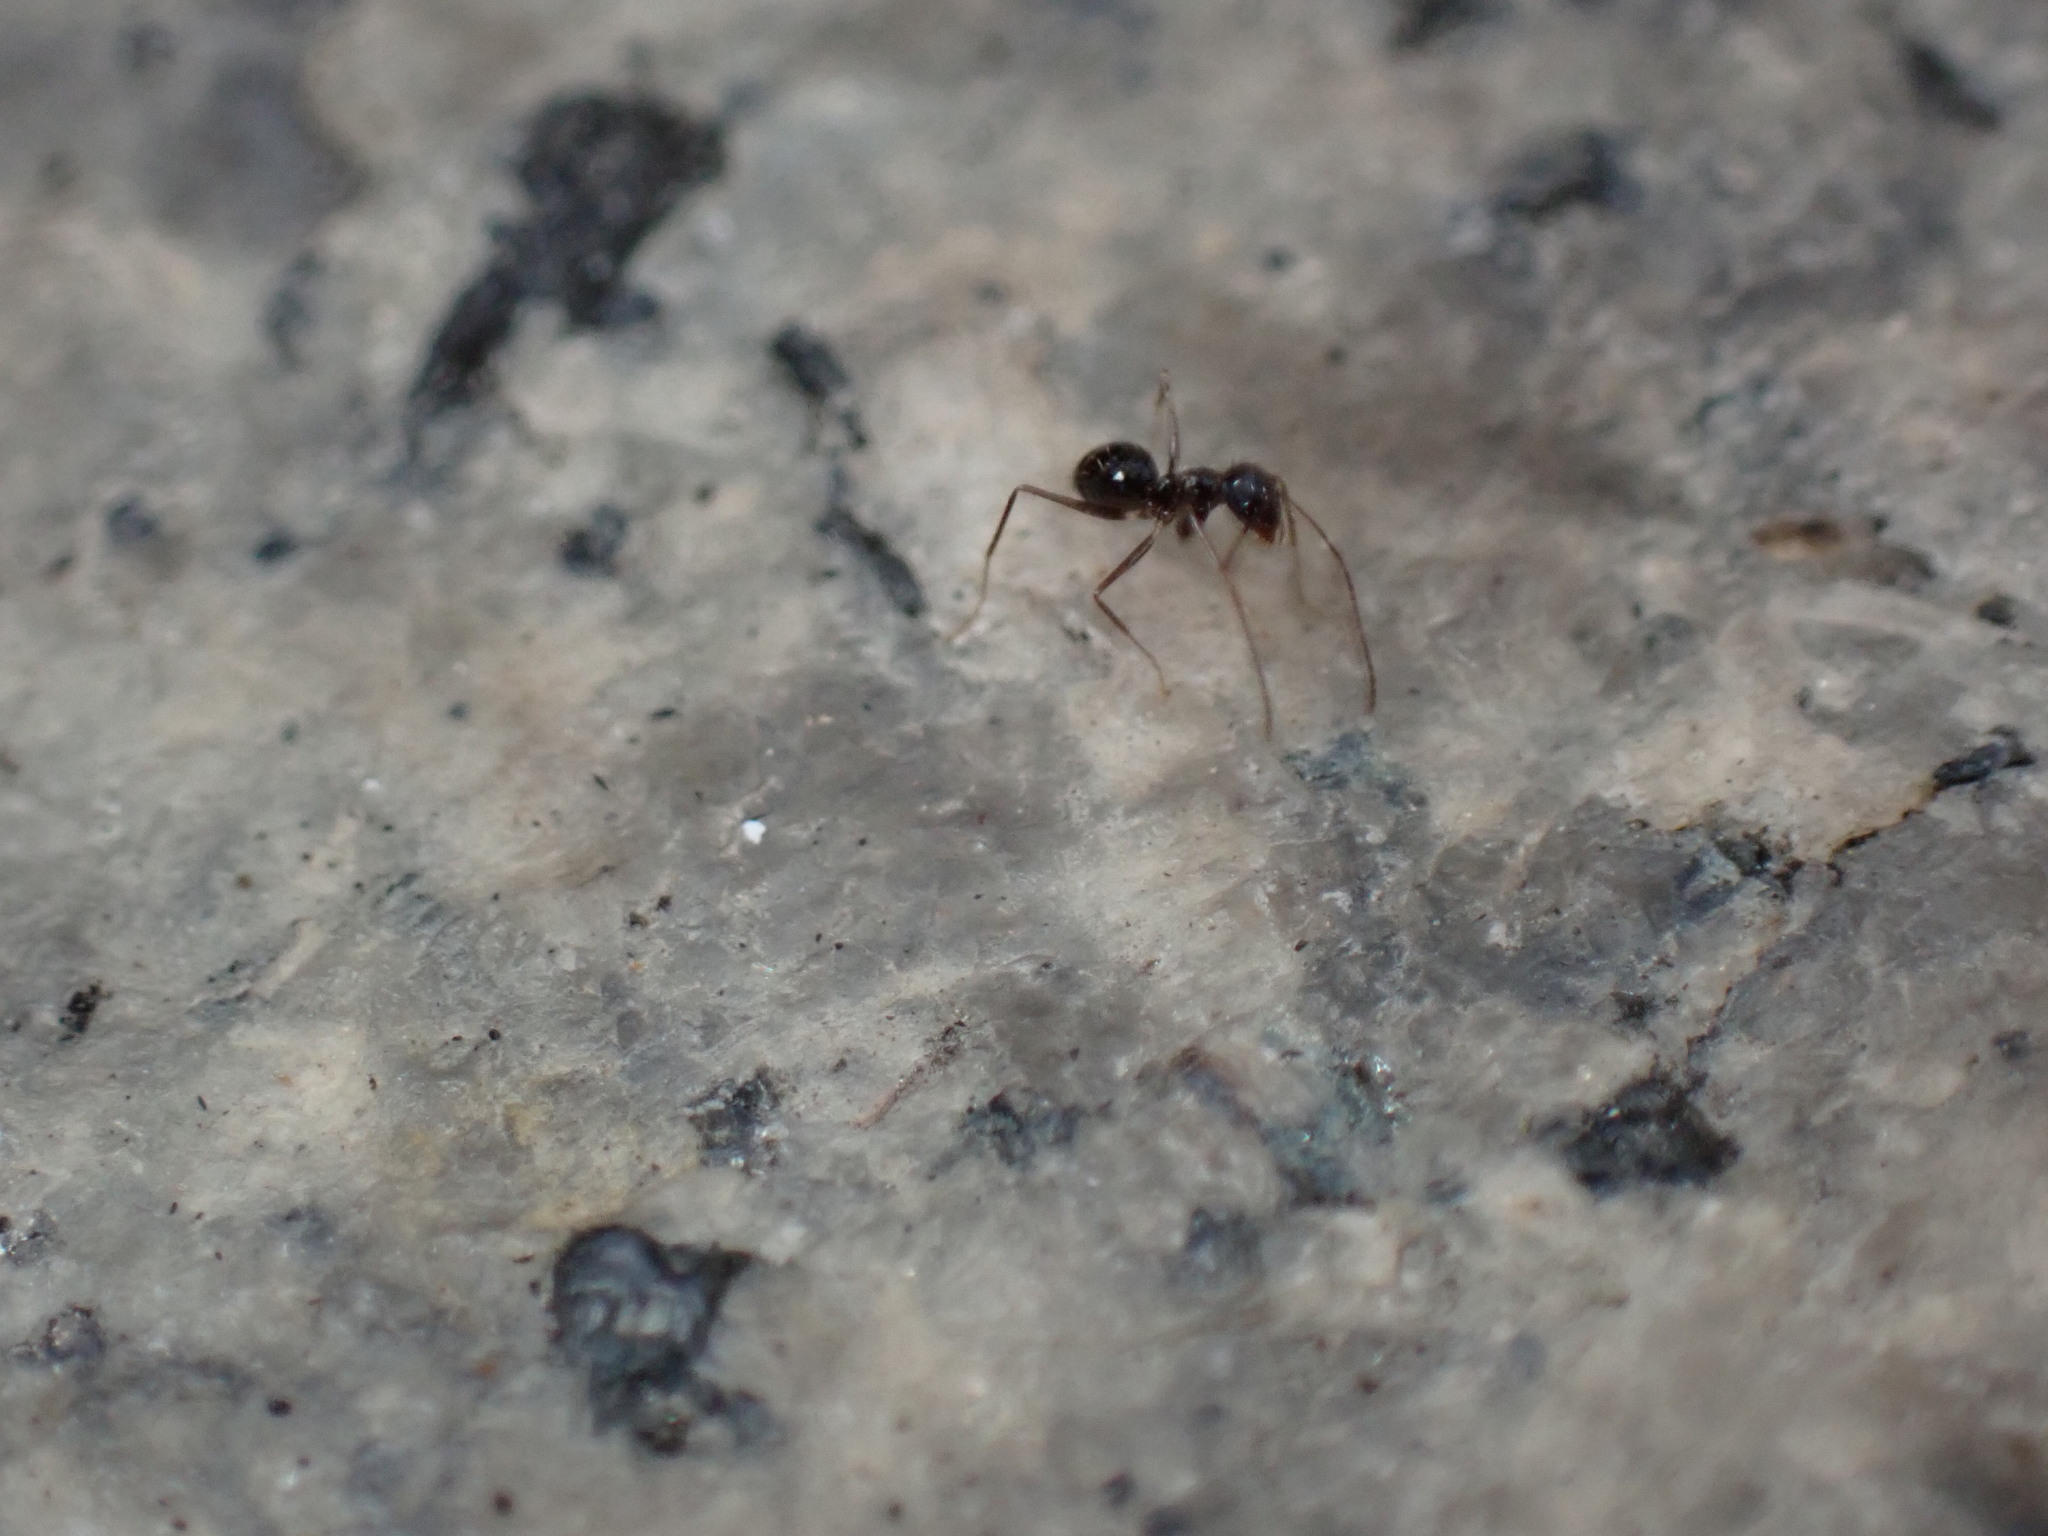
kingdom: Animalia
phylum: Arthropoda
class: Insecta
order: Hymenoptera
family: Formicidae
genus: Paratrechina
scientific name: Paratrechina longicornis
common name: Longhorned crazy ant
